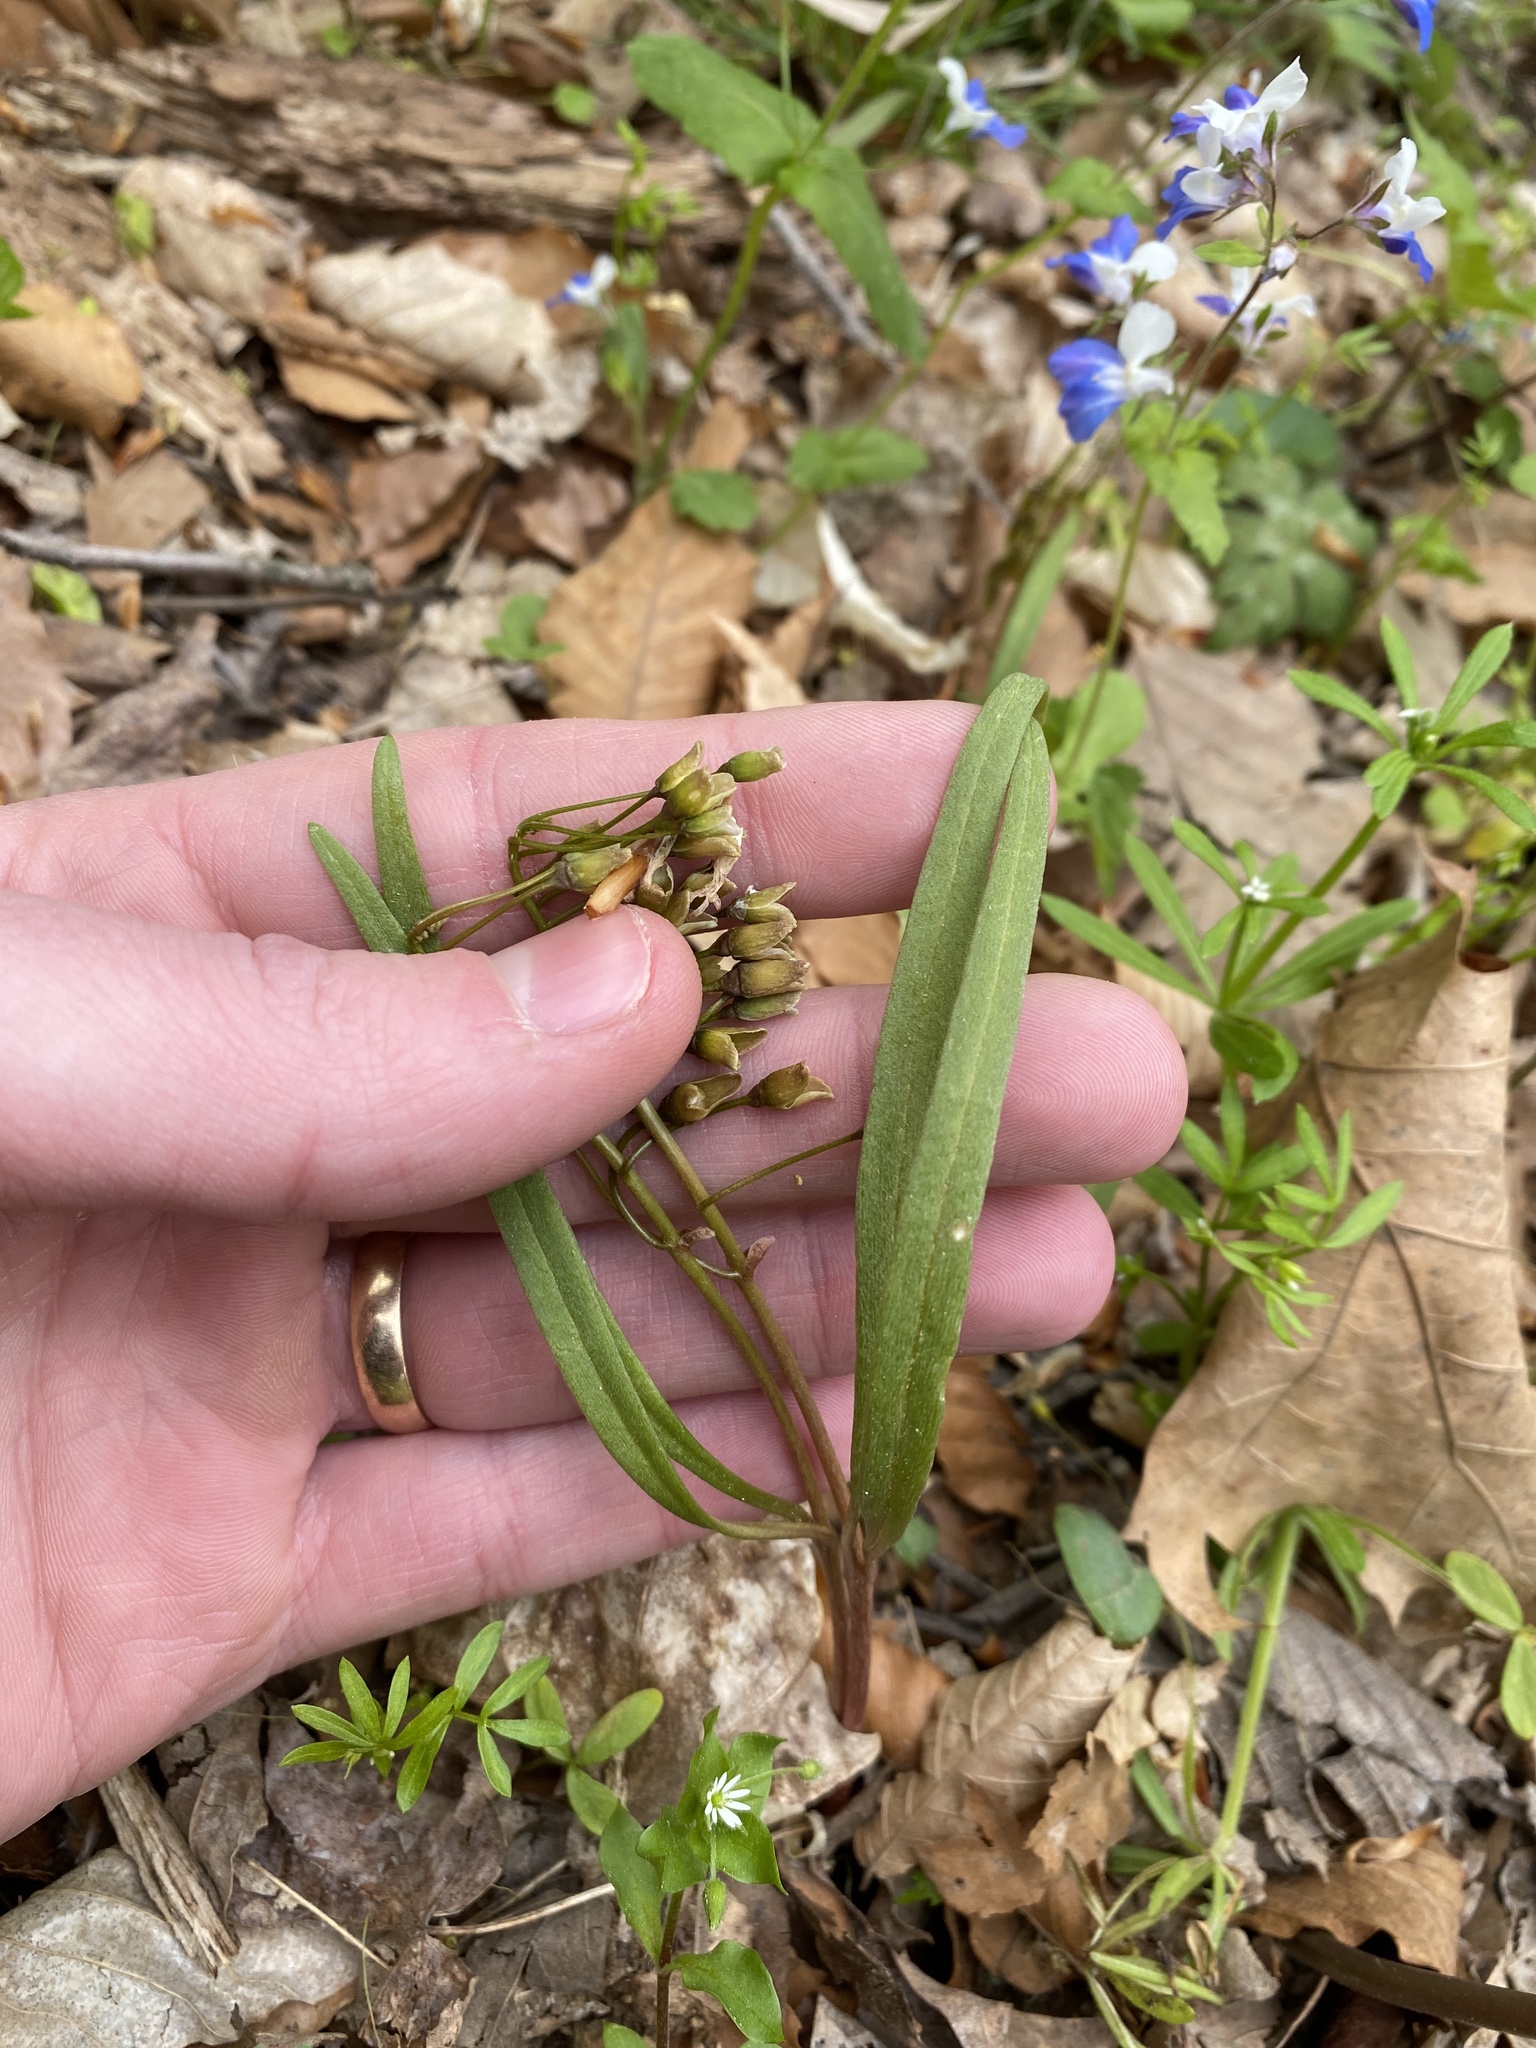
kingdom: Plantae
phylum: Tracheophyta
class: Magnoliopsida
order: Caryophyllales
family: Montiaceae
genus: Claytonia
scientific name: Claytonia virginica
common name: Virginia springbeauty
